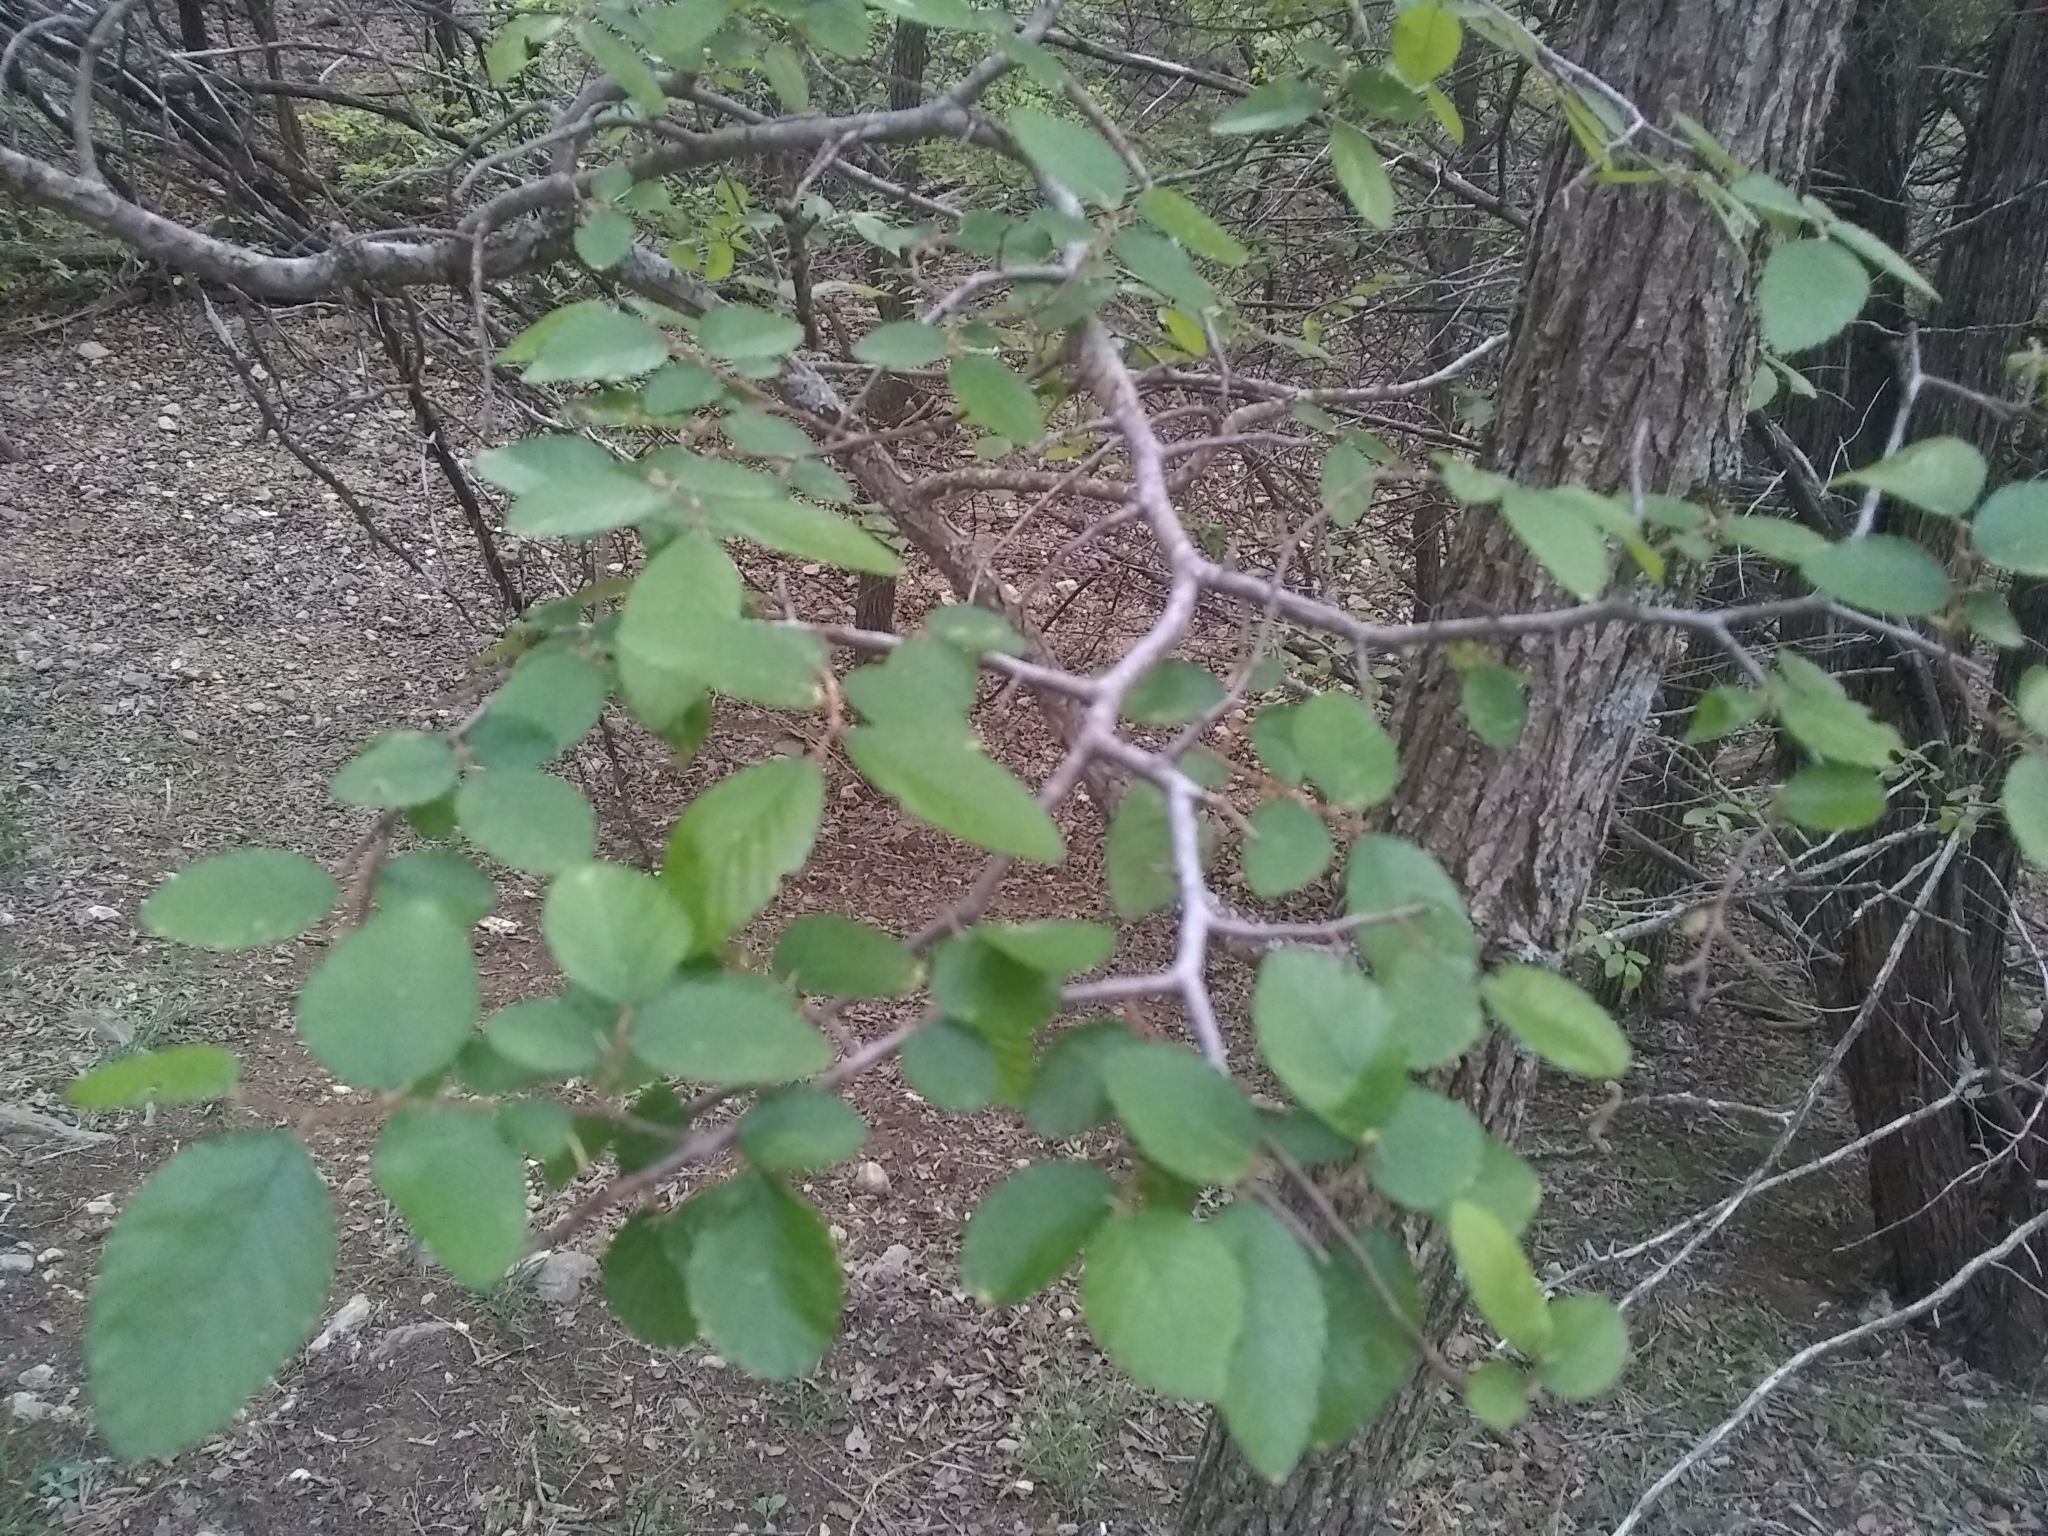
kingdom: Plantae
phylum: Tracheophyta
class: Magnoliopsida
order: Rosales
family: Ulmaceae
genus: Ulmus
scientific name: Ulmus crassifolia
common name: Basket elm
